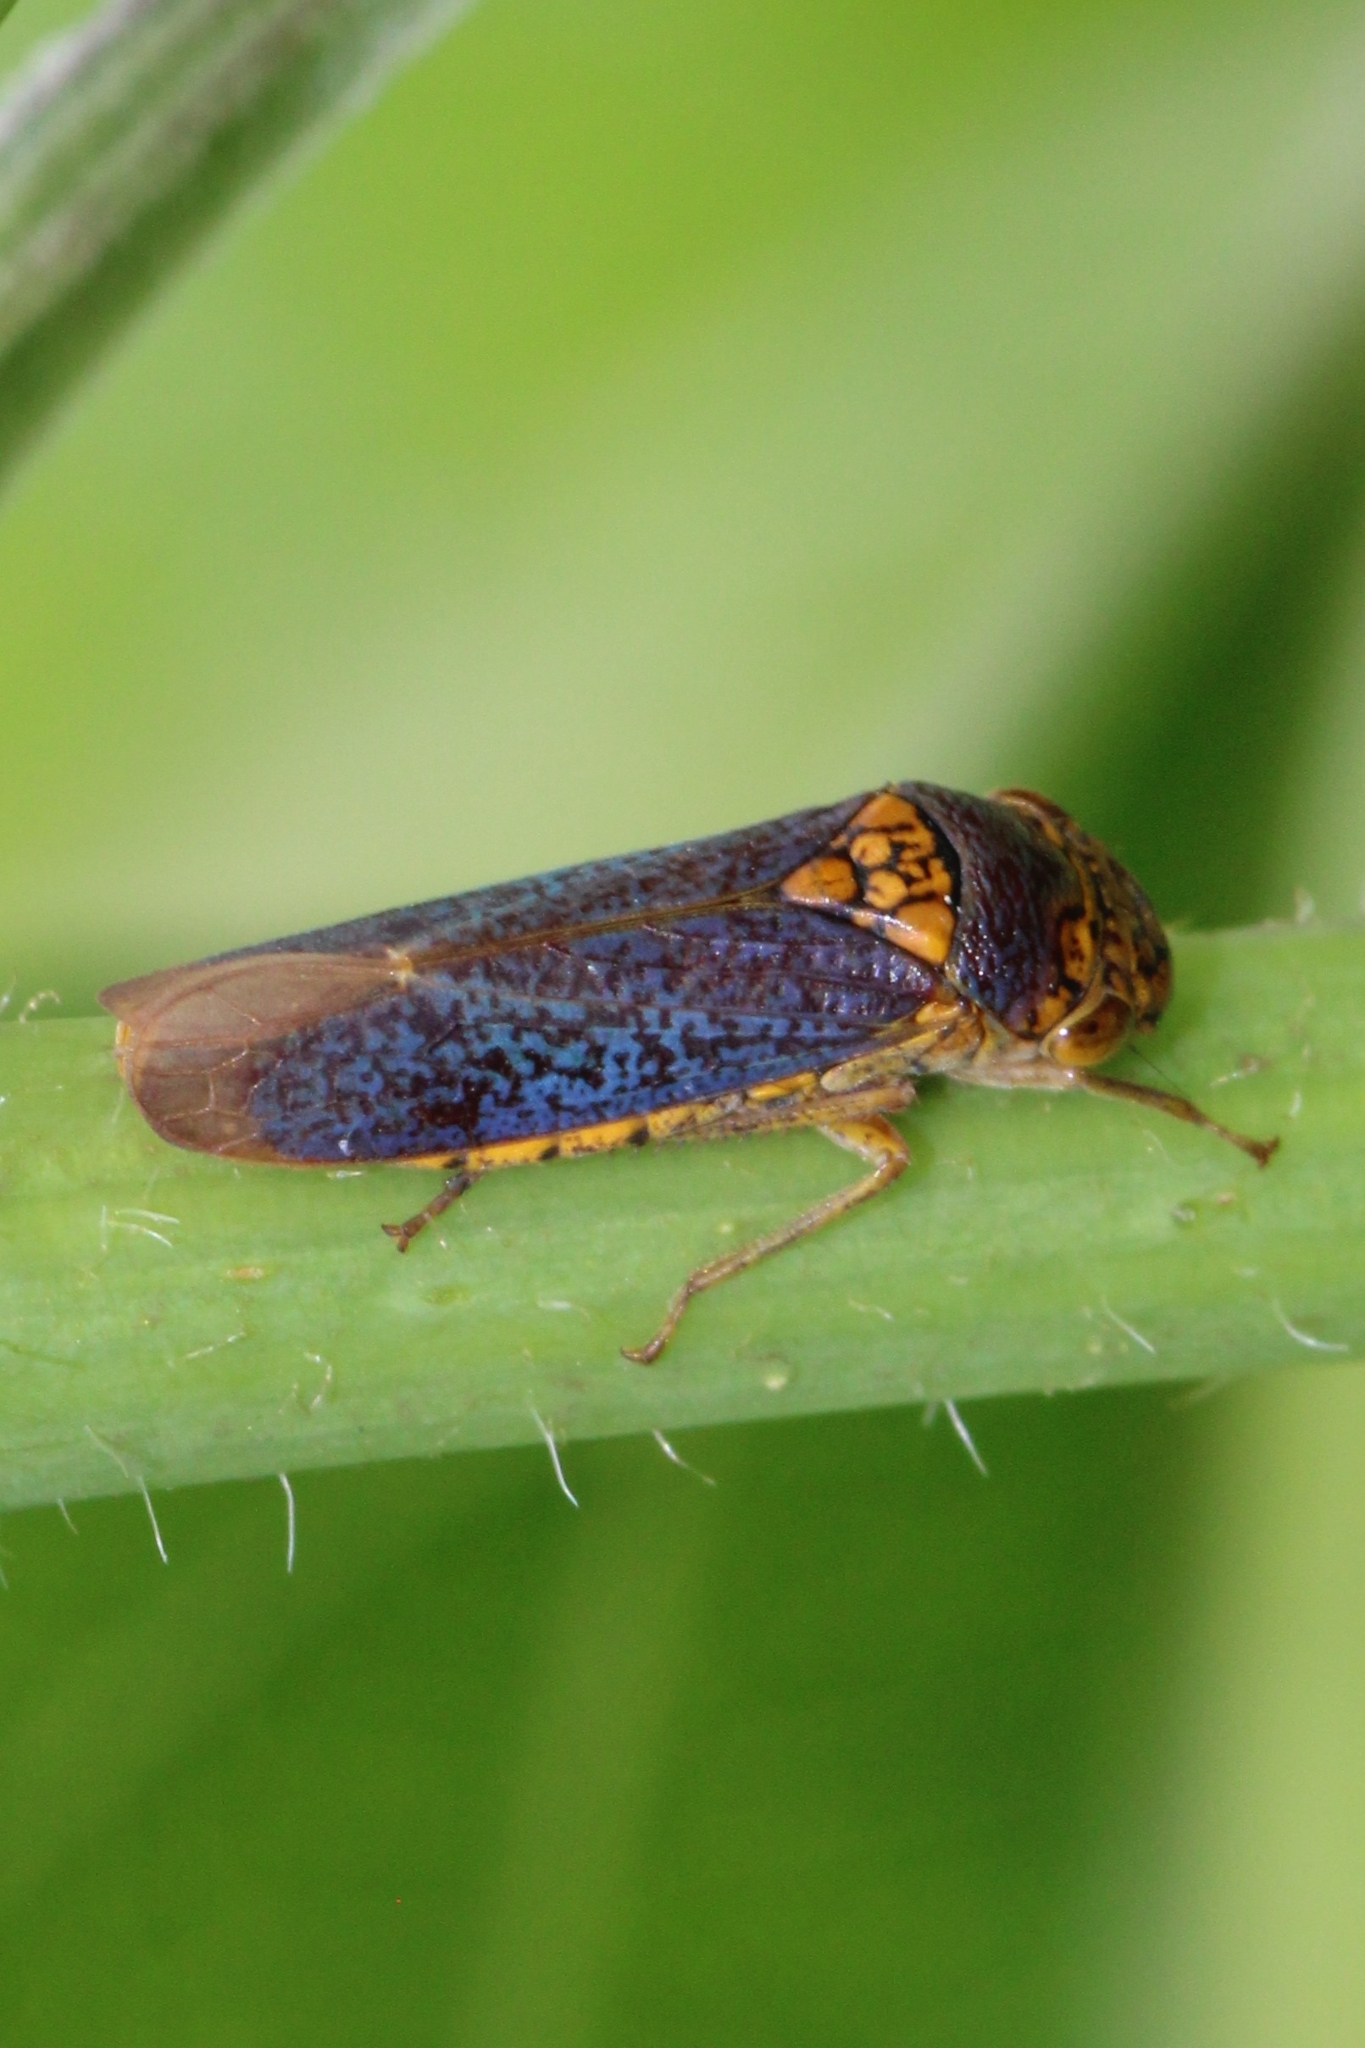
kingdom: Animalia
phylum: Arthropoda
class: Insecta
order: Hemiptera
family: Cicadellidae
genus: Oncometopia
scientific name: Oncometopia orbona
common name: Broad-headed sharpshooter
